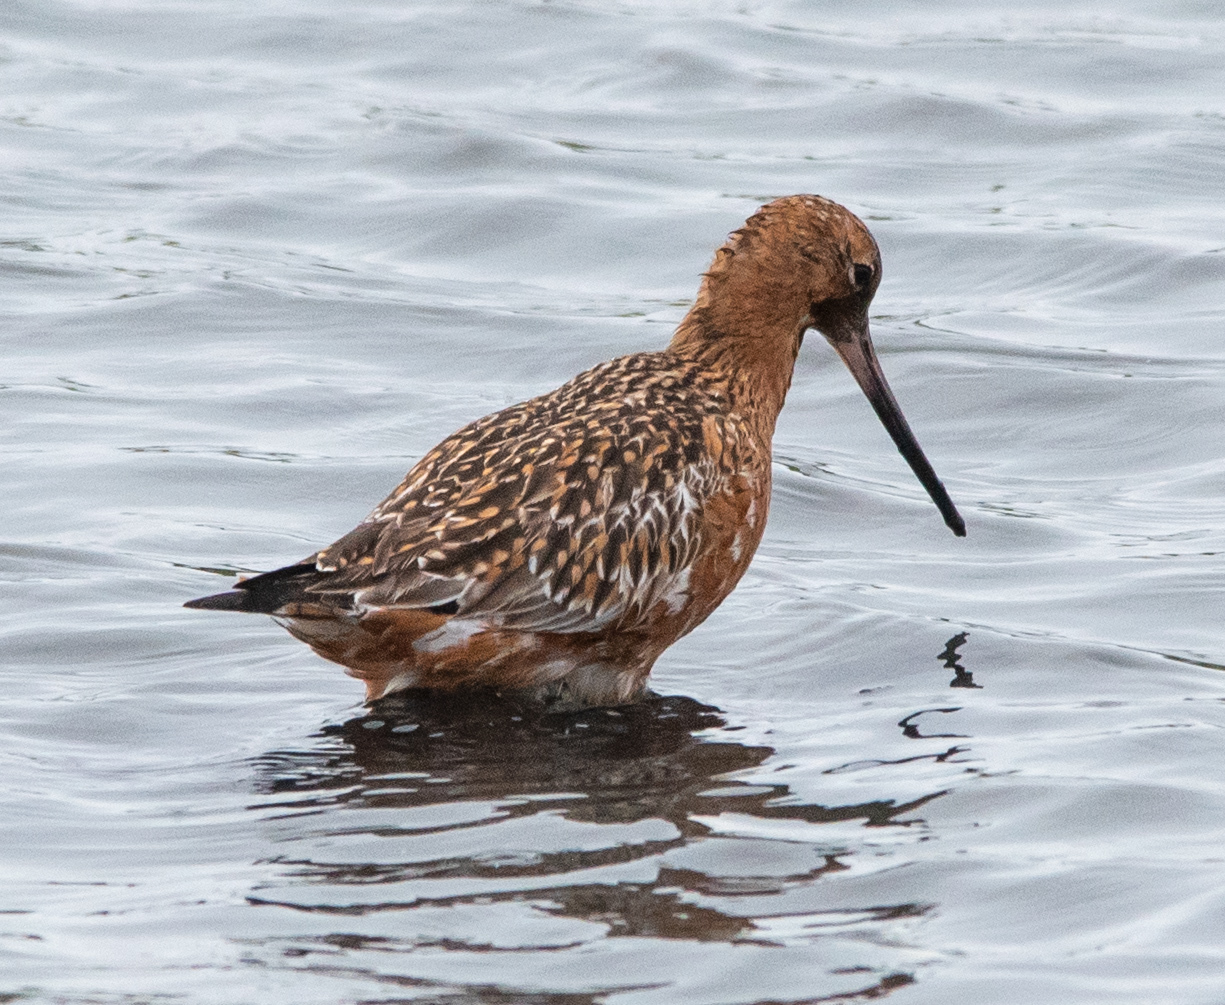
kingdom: Animalia
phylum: Chordata
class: Aves
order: Charadriiformes
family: Scolopacidae
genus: Limosa
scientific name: Limosa lapponica
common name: Bar-tailed godwit
